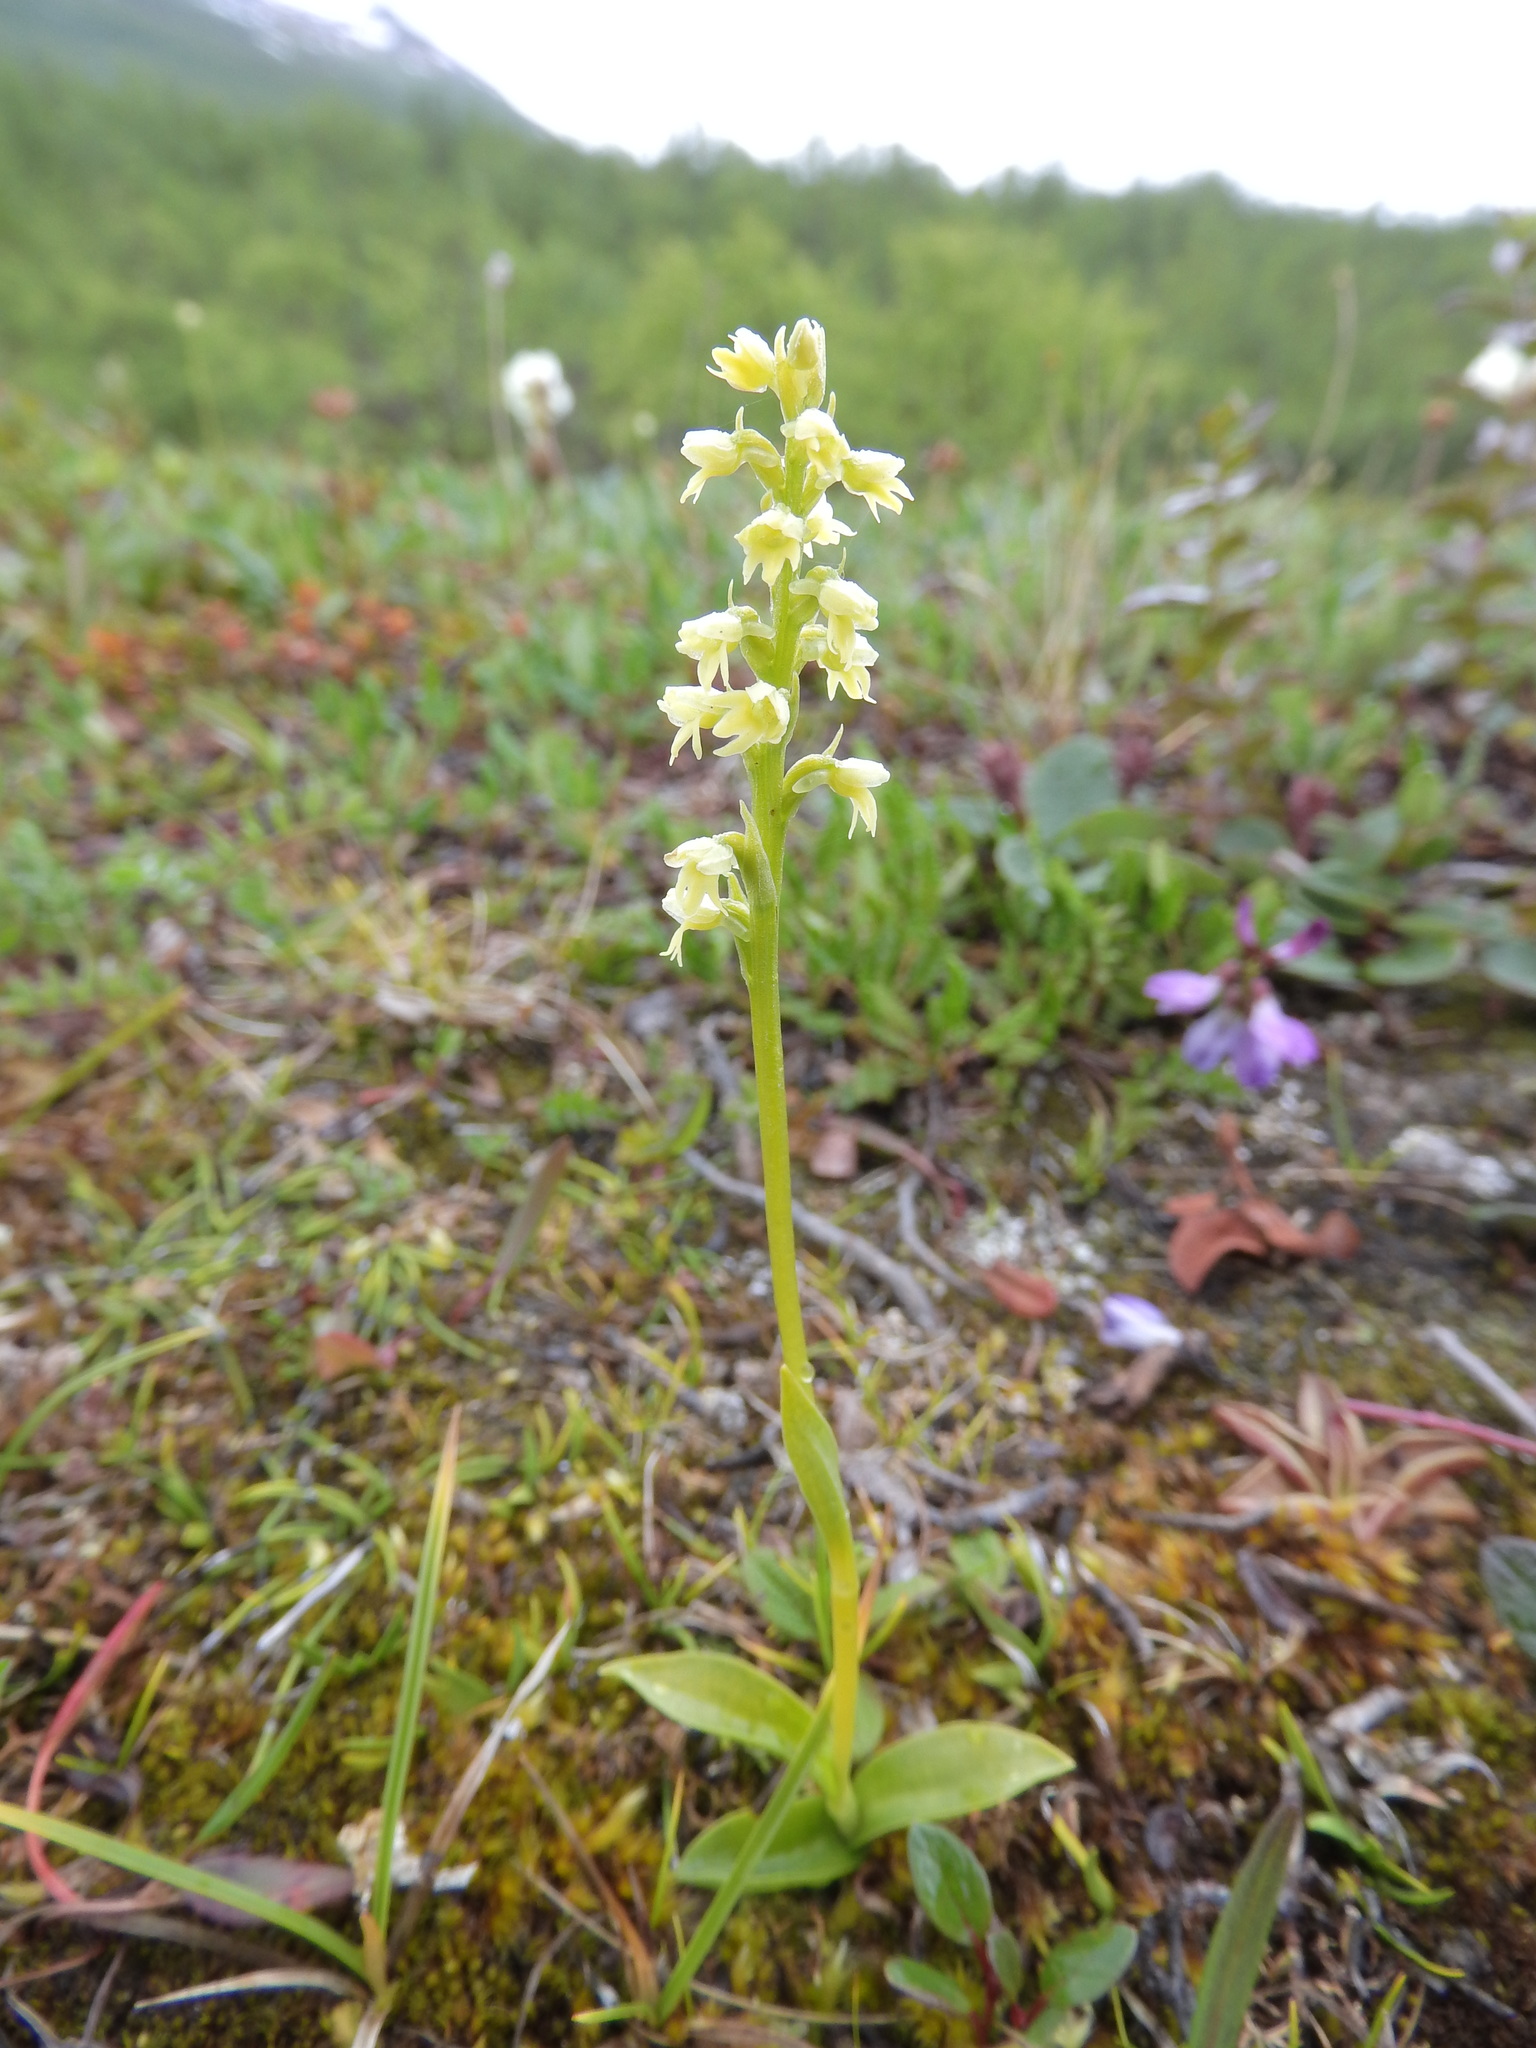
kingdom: Plantae
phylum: Tracheophyta
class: Liliopsida
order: Asparagales
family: Orchidaceae
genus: Pseudorchis
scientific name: Pseudorchis straminea
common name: Vanilla-scented bog orchid
